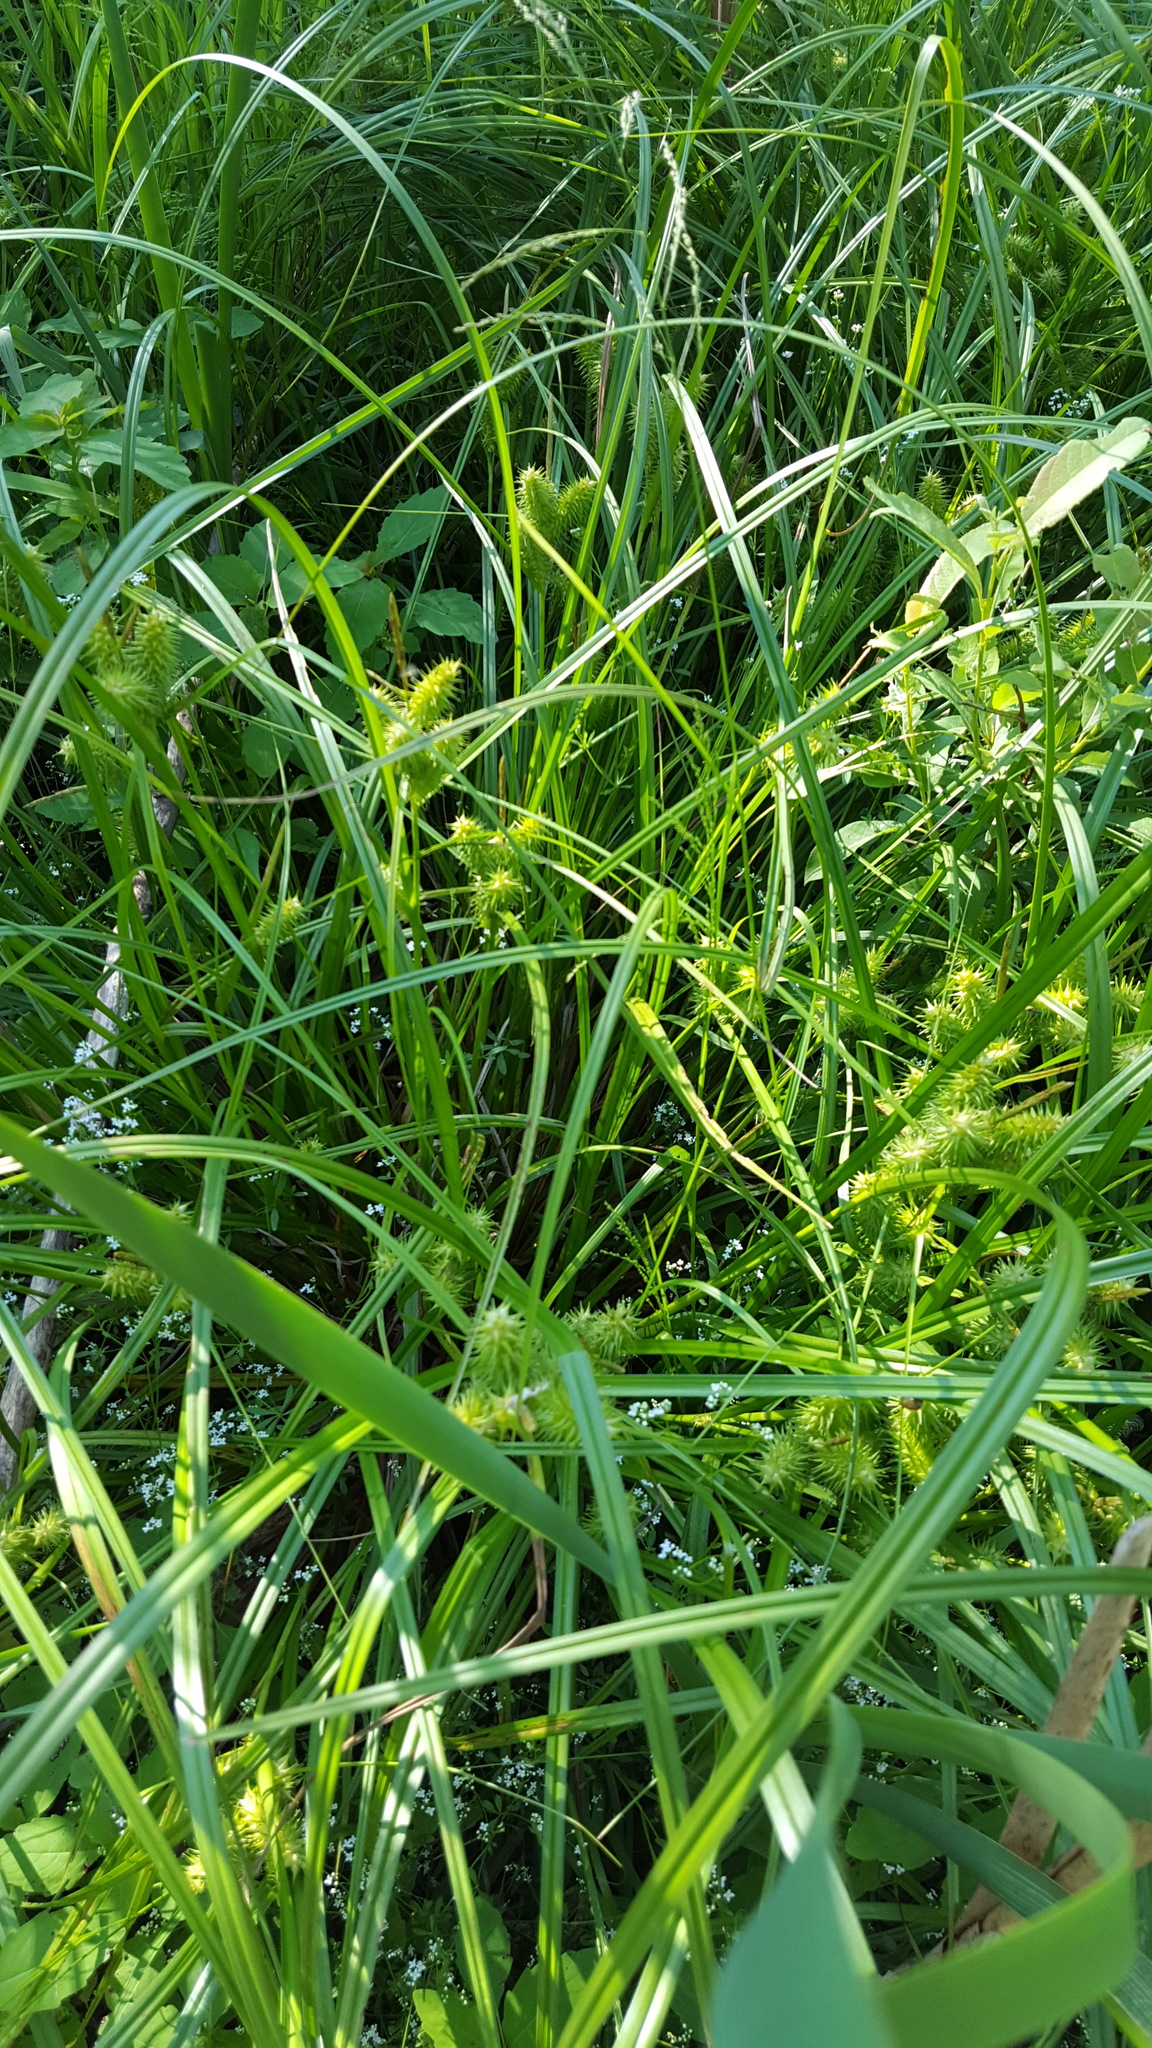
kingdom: Plantae
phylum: Tracheophyta
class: Liliopsida
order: Poales
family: Cyperaceae
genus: Carex
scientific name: Carex retrorsa
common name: Knot-sheath sedge
